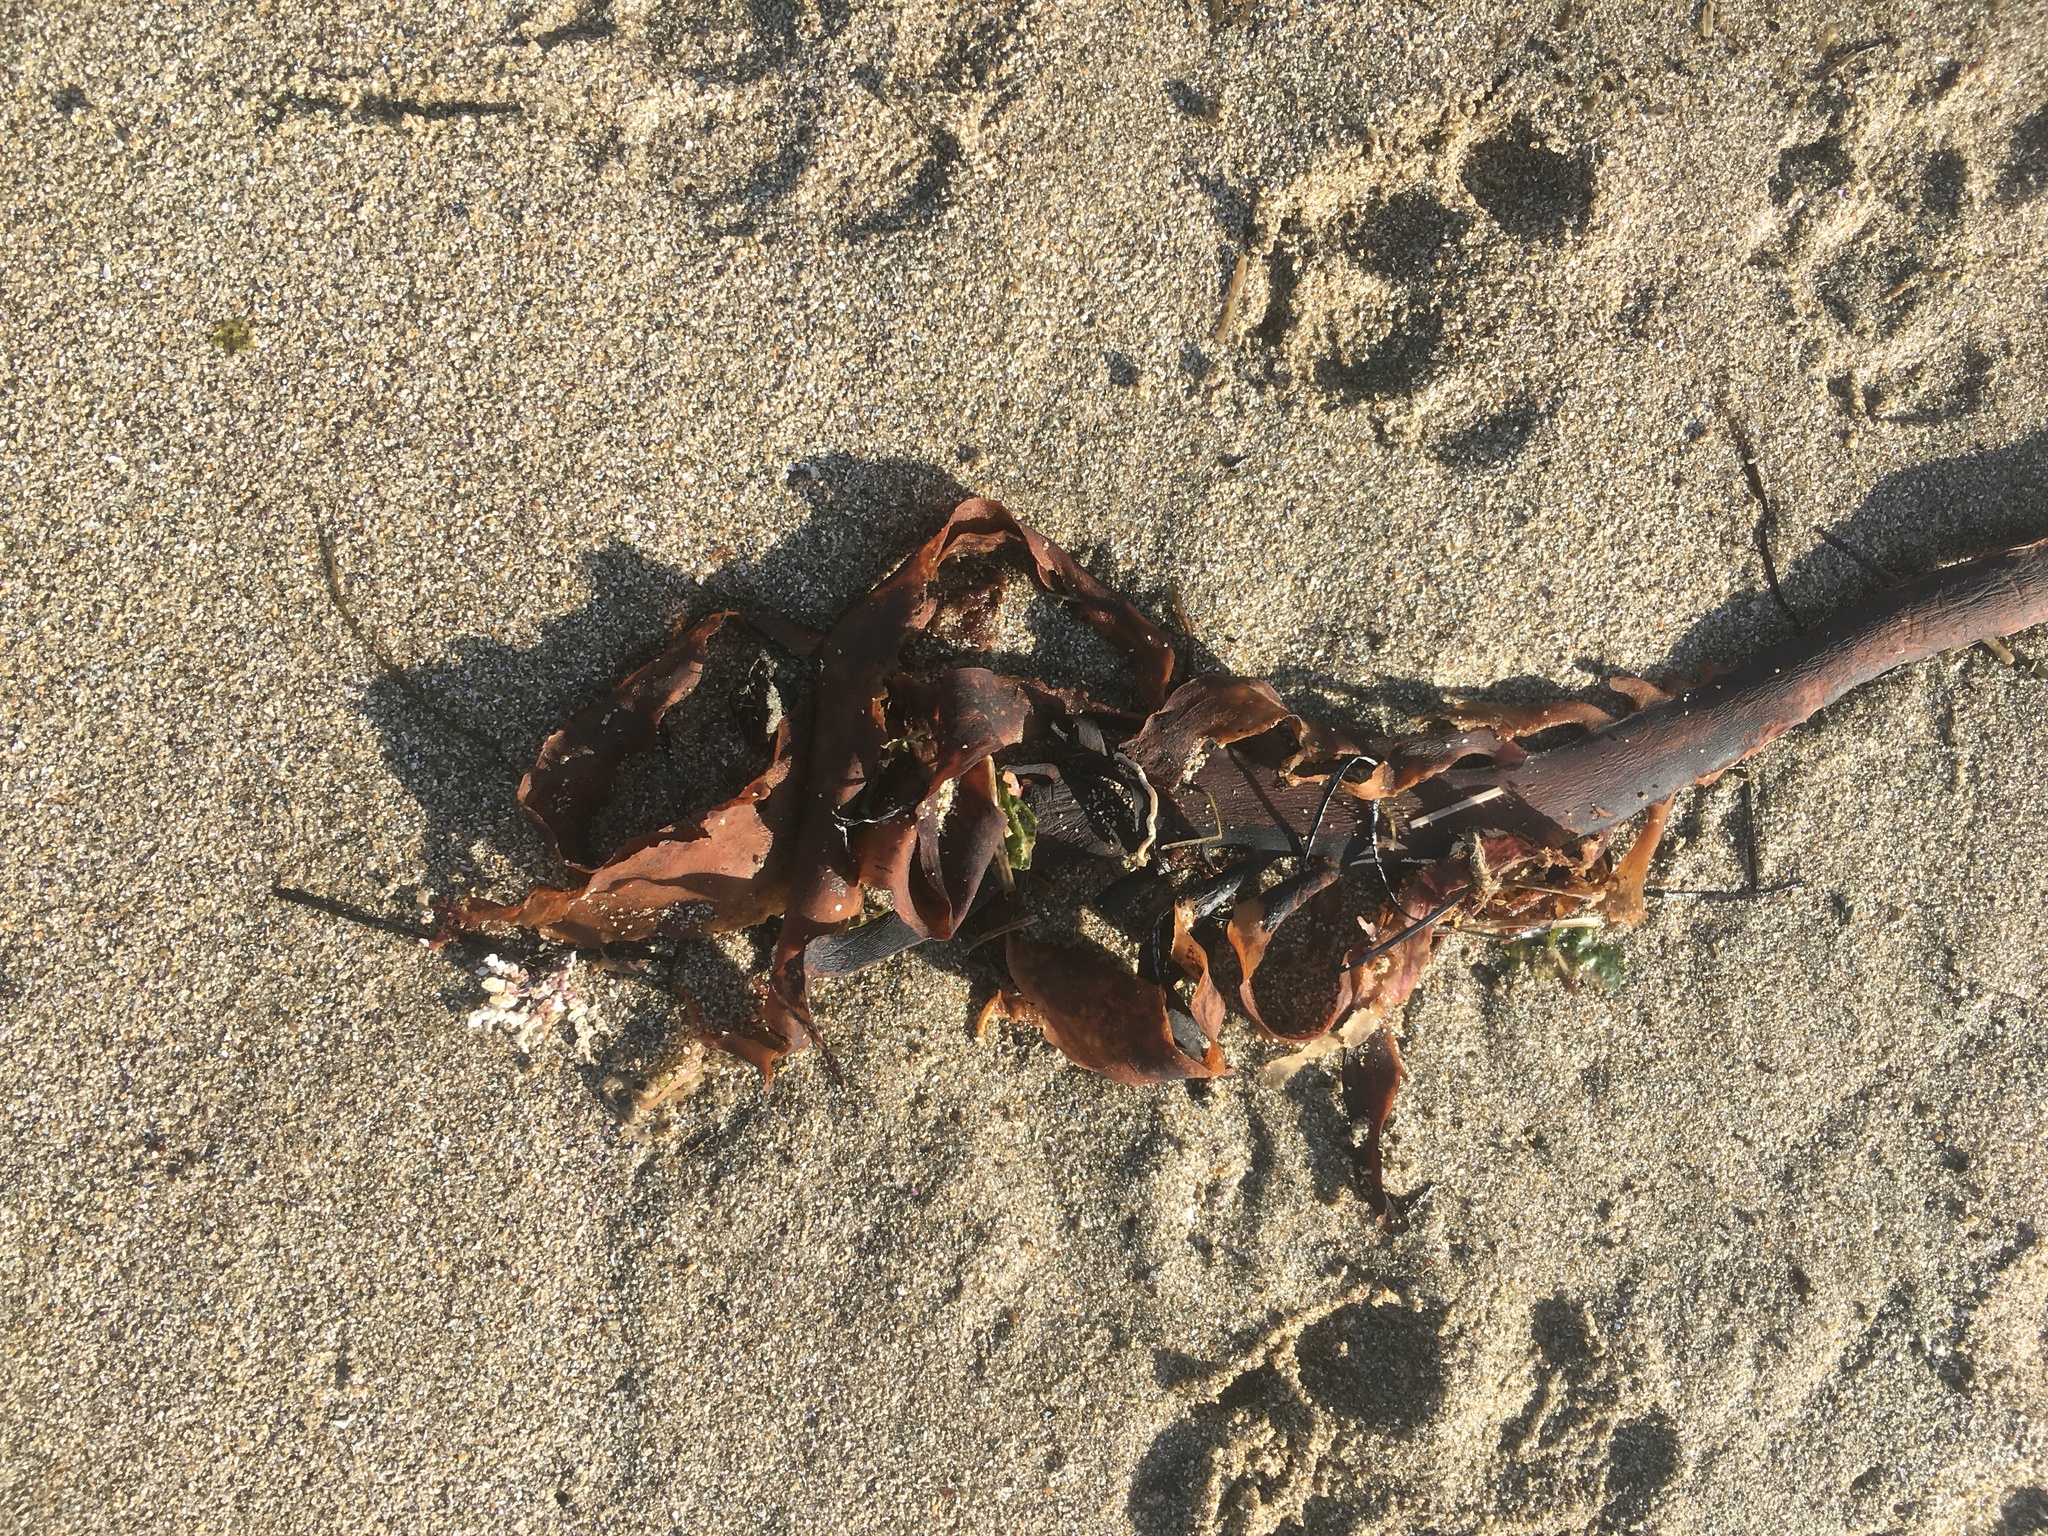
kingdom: Chromista
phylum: Ochrophyta
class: Phaeophyceae
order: Laminariales
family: Alariaceae
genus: Pterygophora
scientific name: Pterygophora californica
